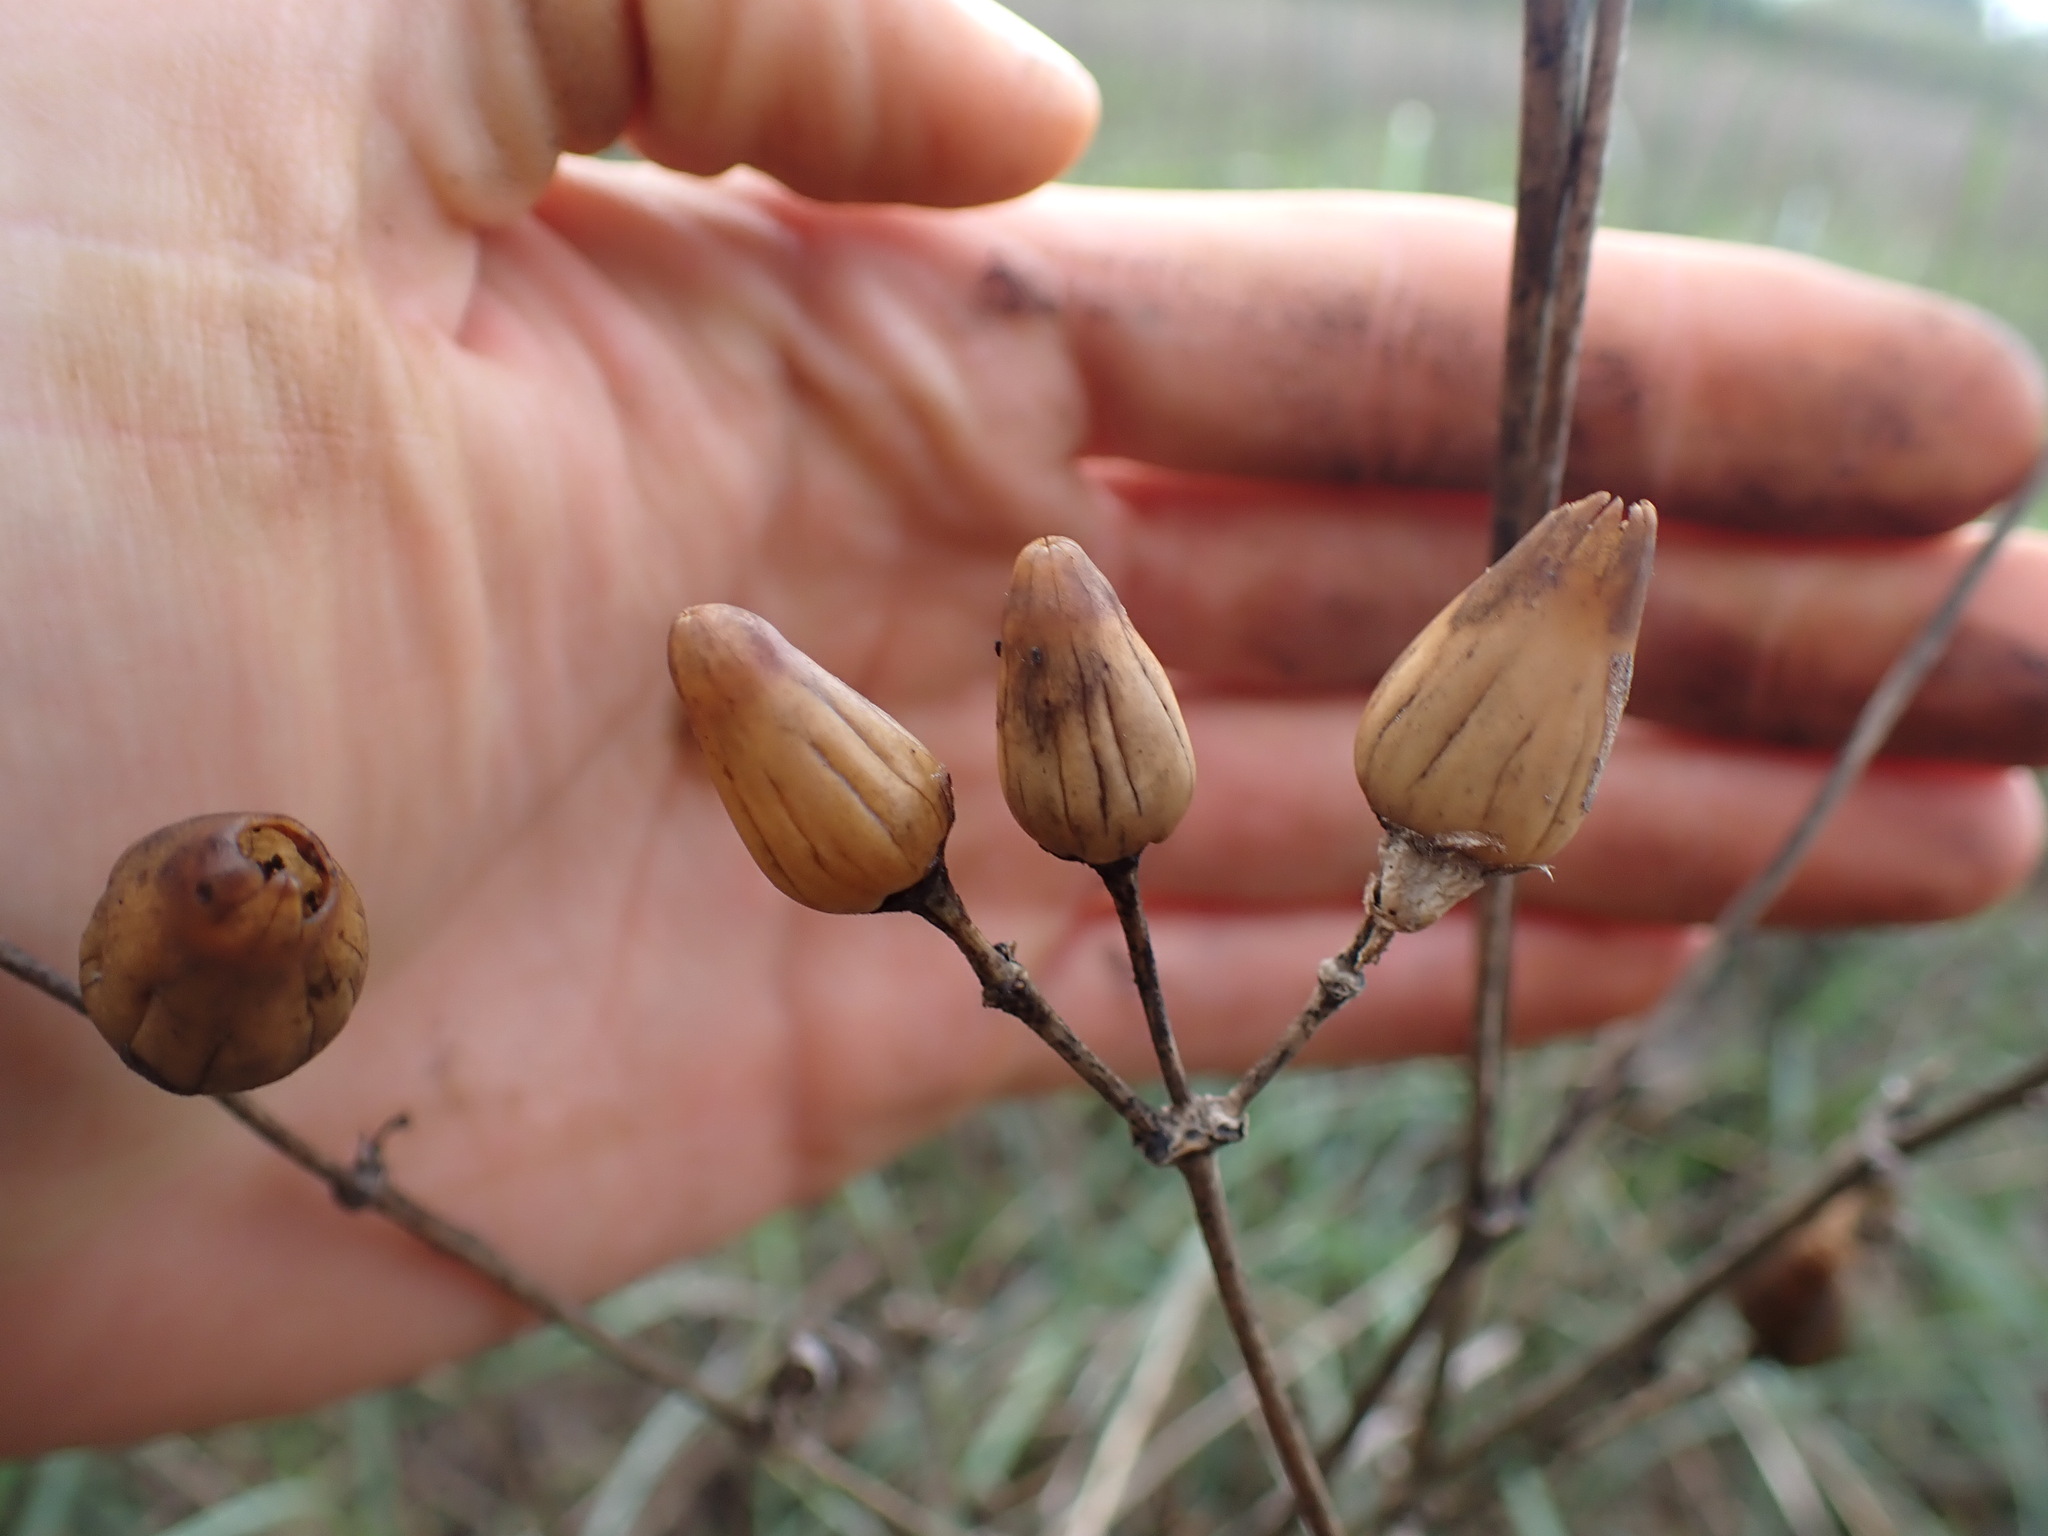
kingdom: Plantae
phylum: Tracheophyta
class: Magnoliopsida
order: Caryophyllales
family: Caryophyllaceae
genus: Silene
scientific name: Silene latifolia
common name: White campion
